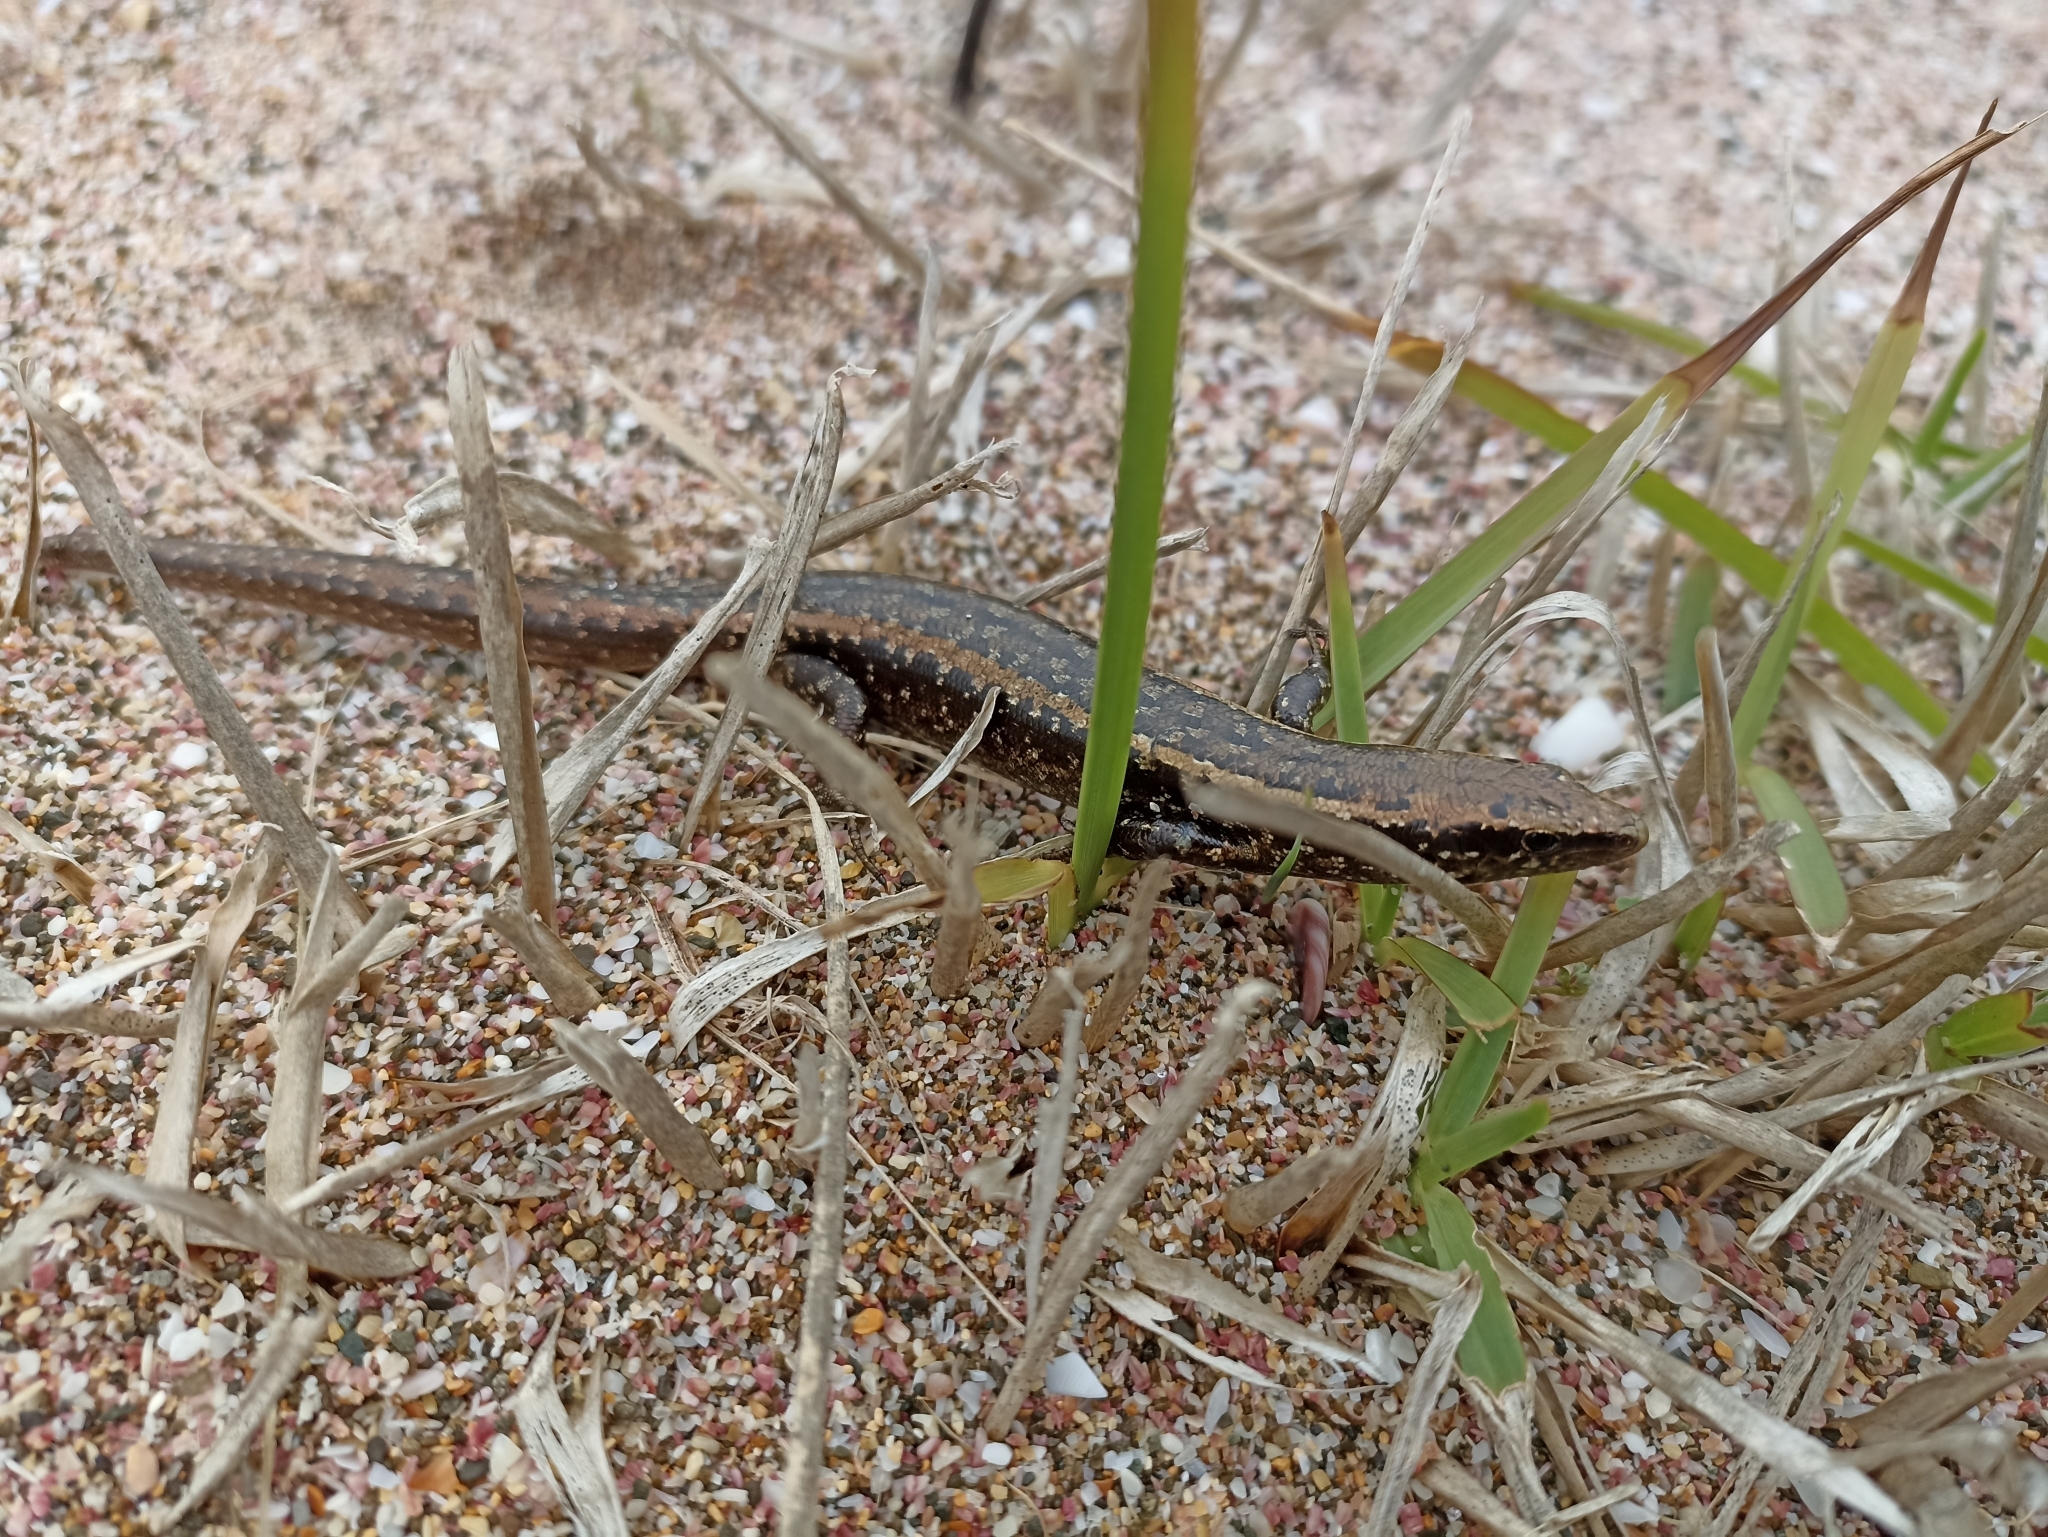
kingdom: Animalia
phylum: Chordata
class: Squamata
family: Scincidae
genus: Oligosoma
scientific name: Oligosoma smithi
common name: Shore skink
